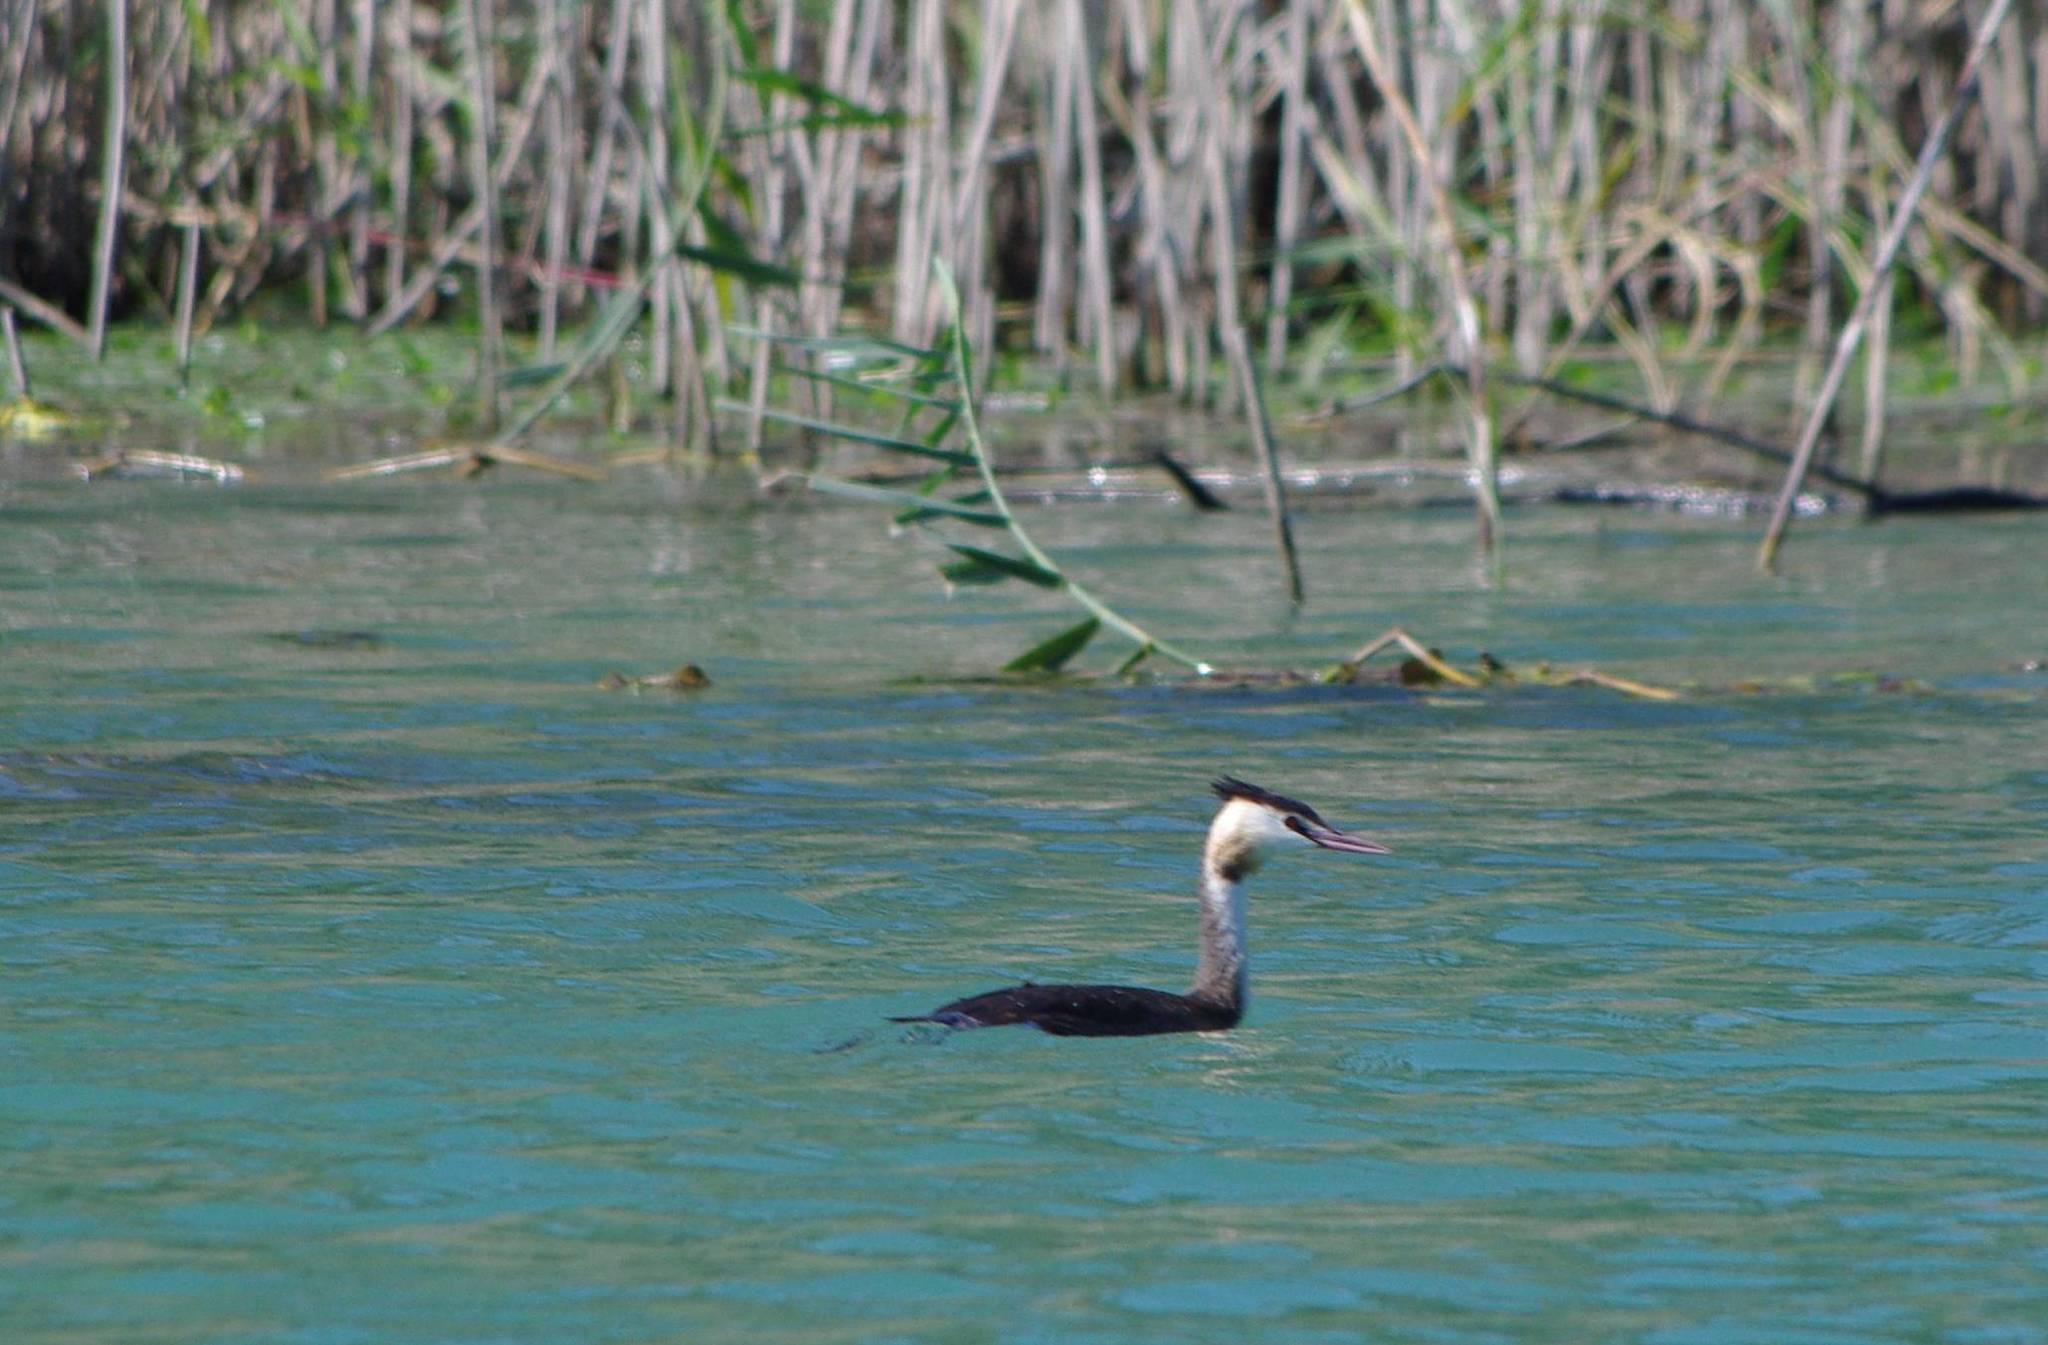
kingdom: Animalia
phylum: Chordata
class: Aves
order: Podicipediformes
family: Podicipedidae
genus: Podiceps
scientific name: Podiceps cristatus
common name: Great crested grebe
